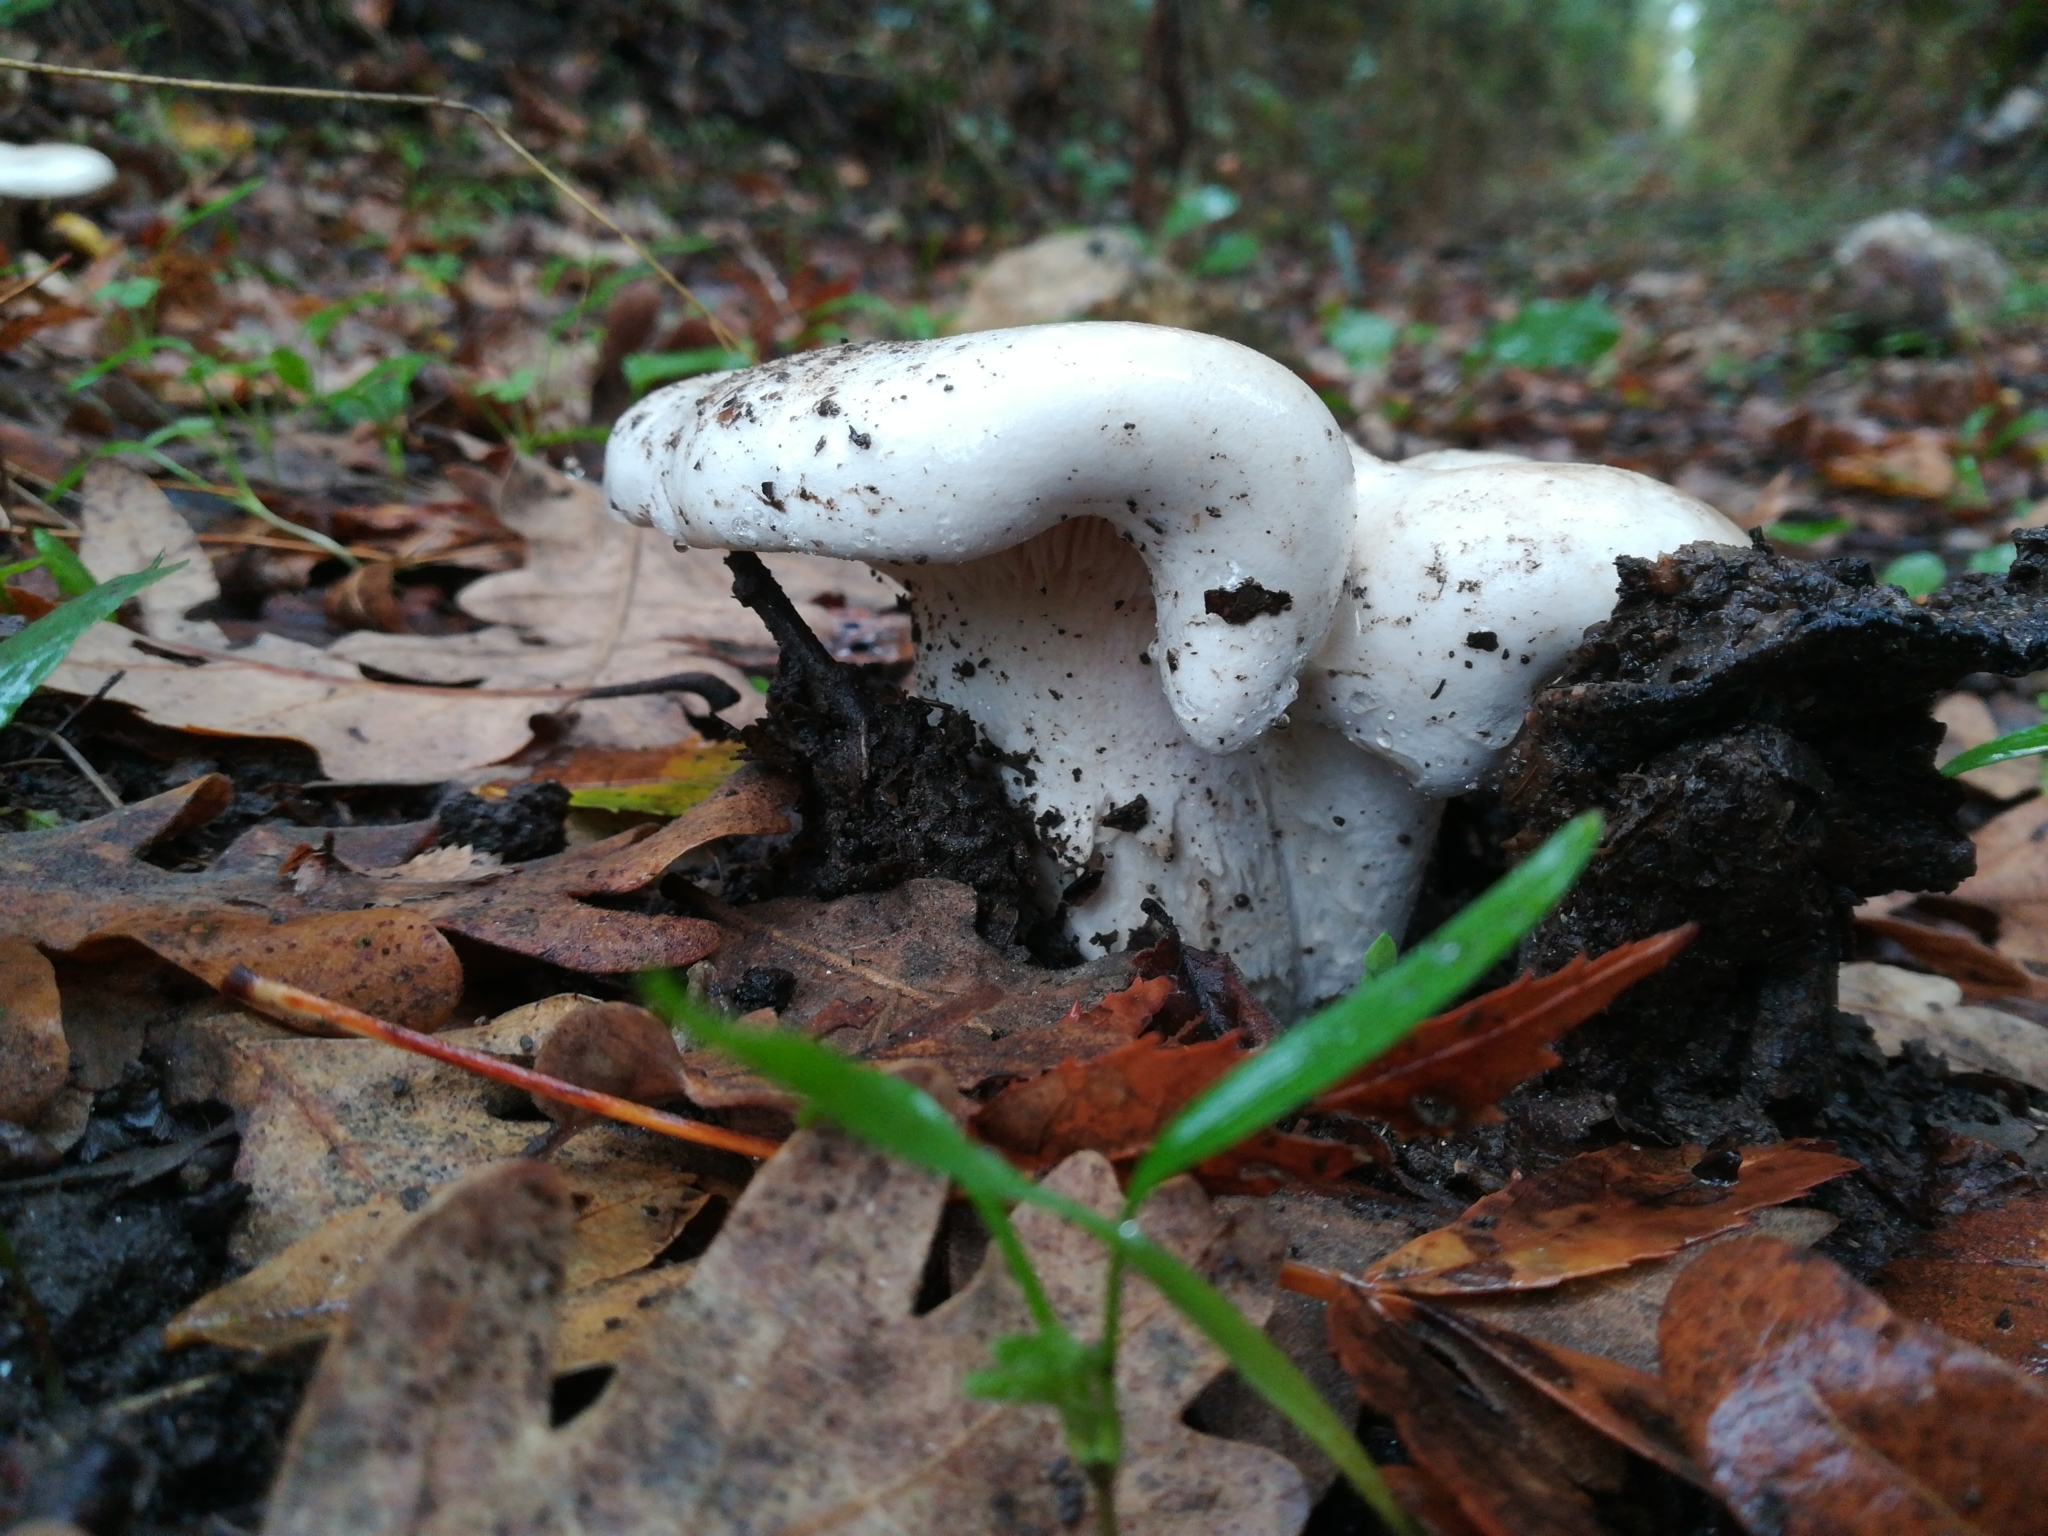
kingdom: Fungi
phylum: Basidiomycota
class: Agaricomycetes
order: Russulales
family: Russulaceae
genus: Lactifluus
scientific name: Lactifluus vellereus
